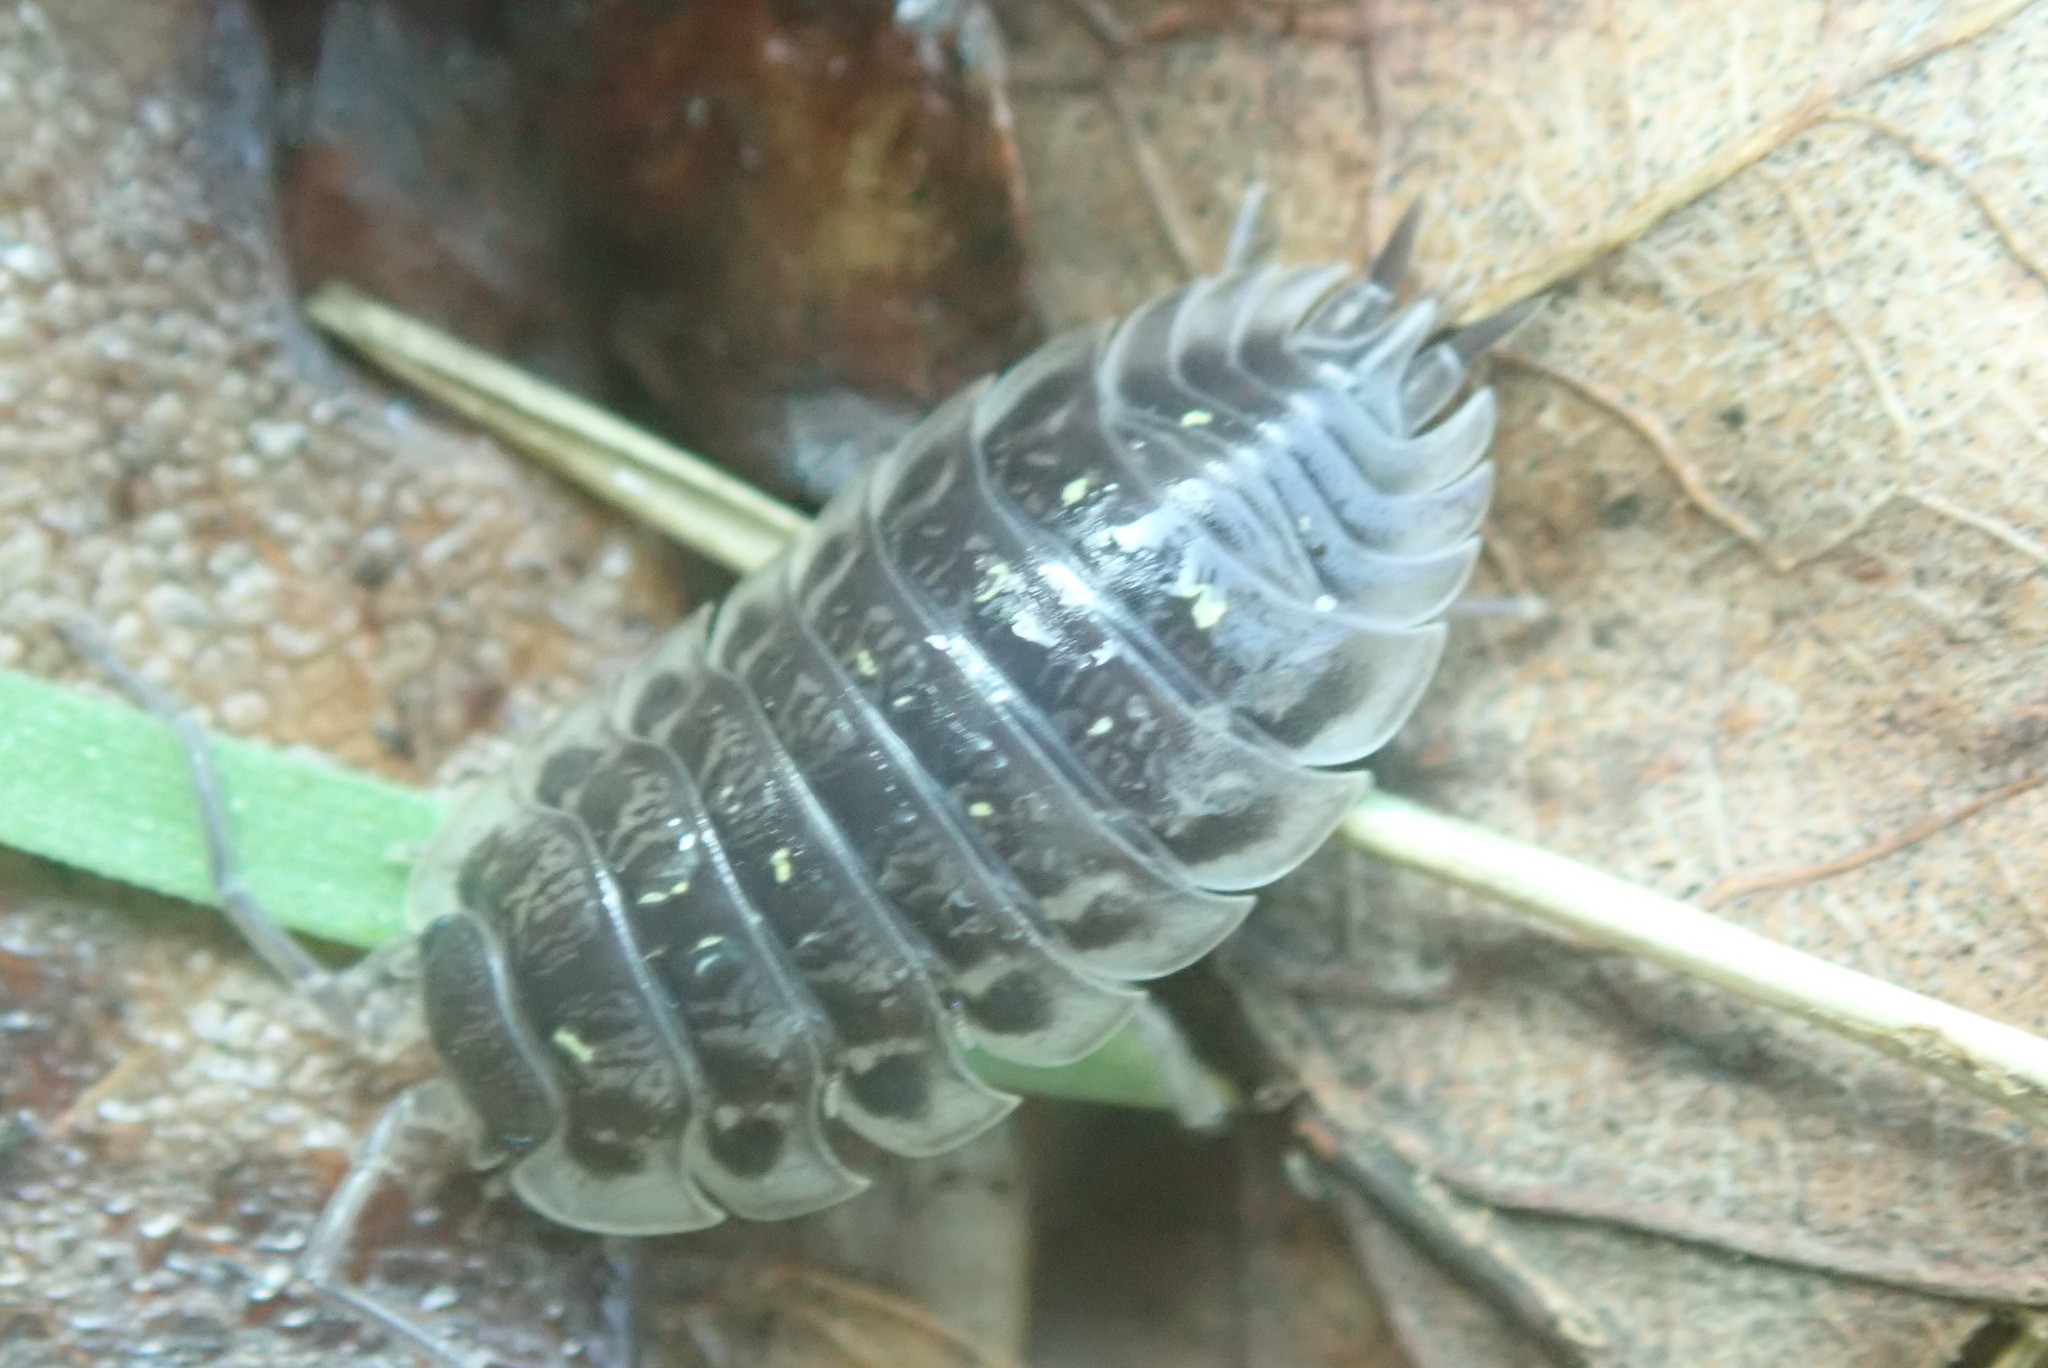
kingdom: Animalia
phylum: Arthropoda
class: Malacostraca
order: Isopoda
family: Oniscidae
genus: Oniscus
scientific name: Oniscus asellus
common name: Common shiny woodlouse
